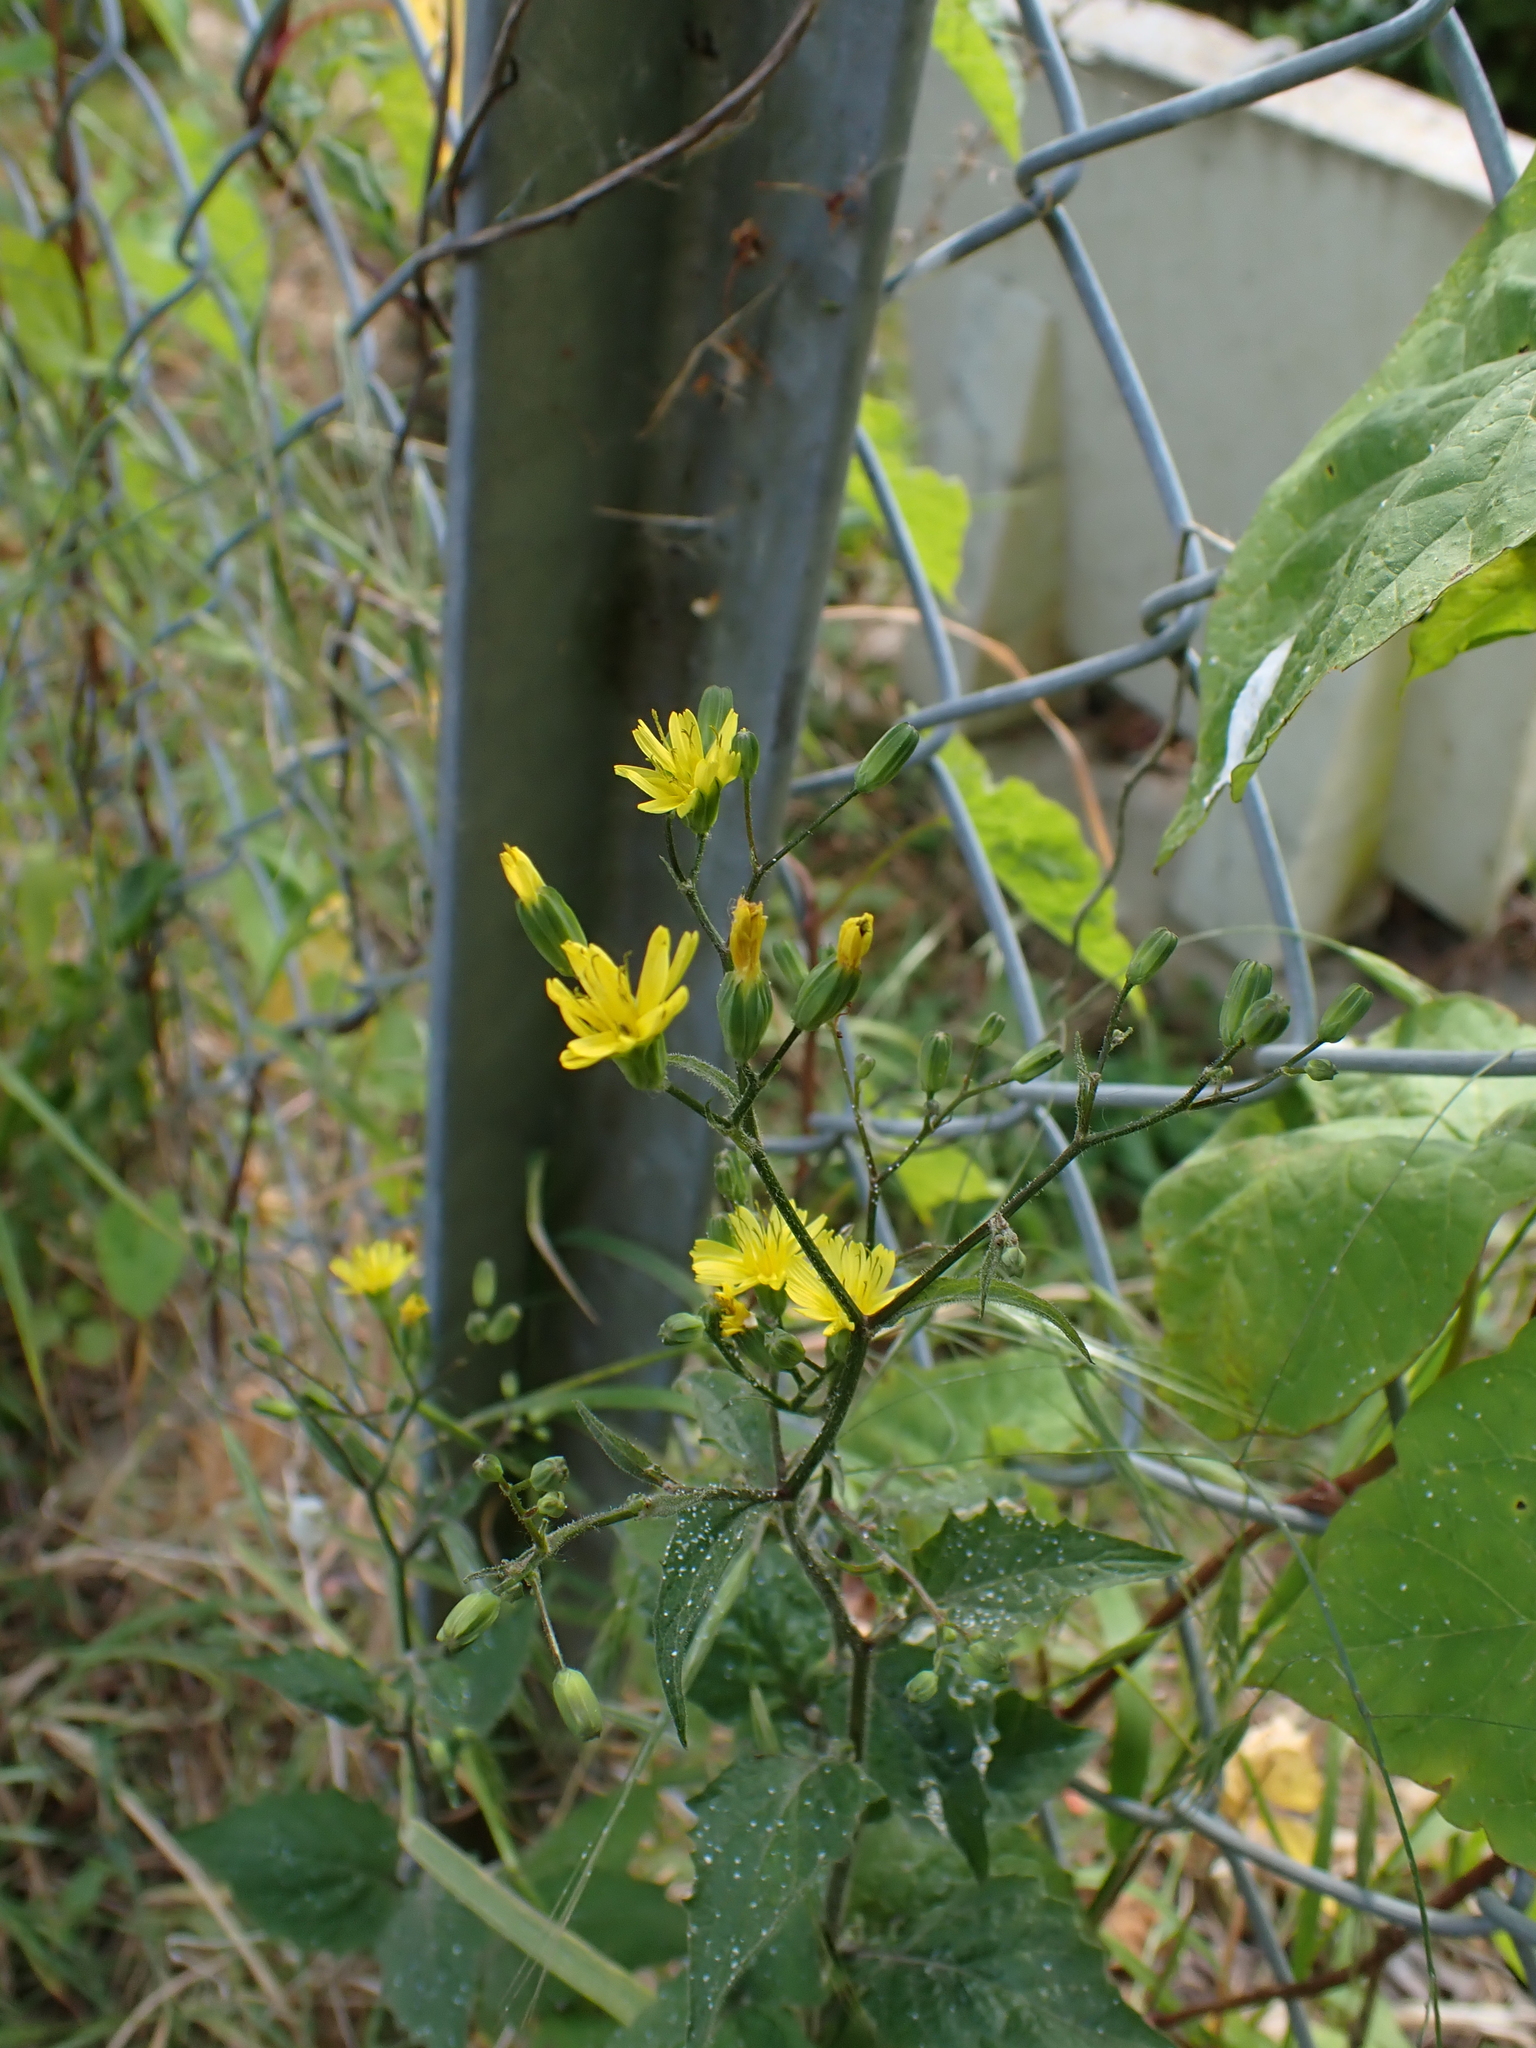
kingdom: Plantae
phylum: Tracheophyta
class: Magnoliopsida
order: Asterales
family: Asteraceae
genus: Lapsana
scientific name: Lapsana communis
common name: Nipplewort
